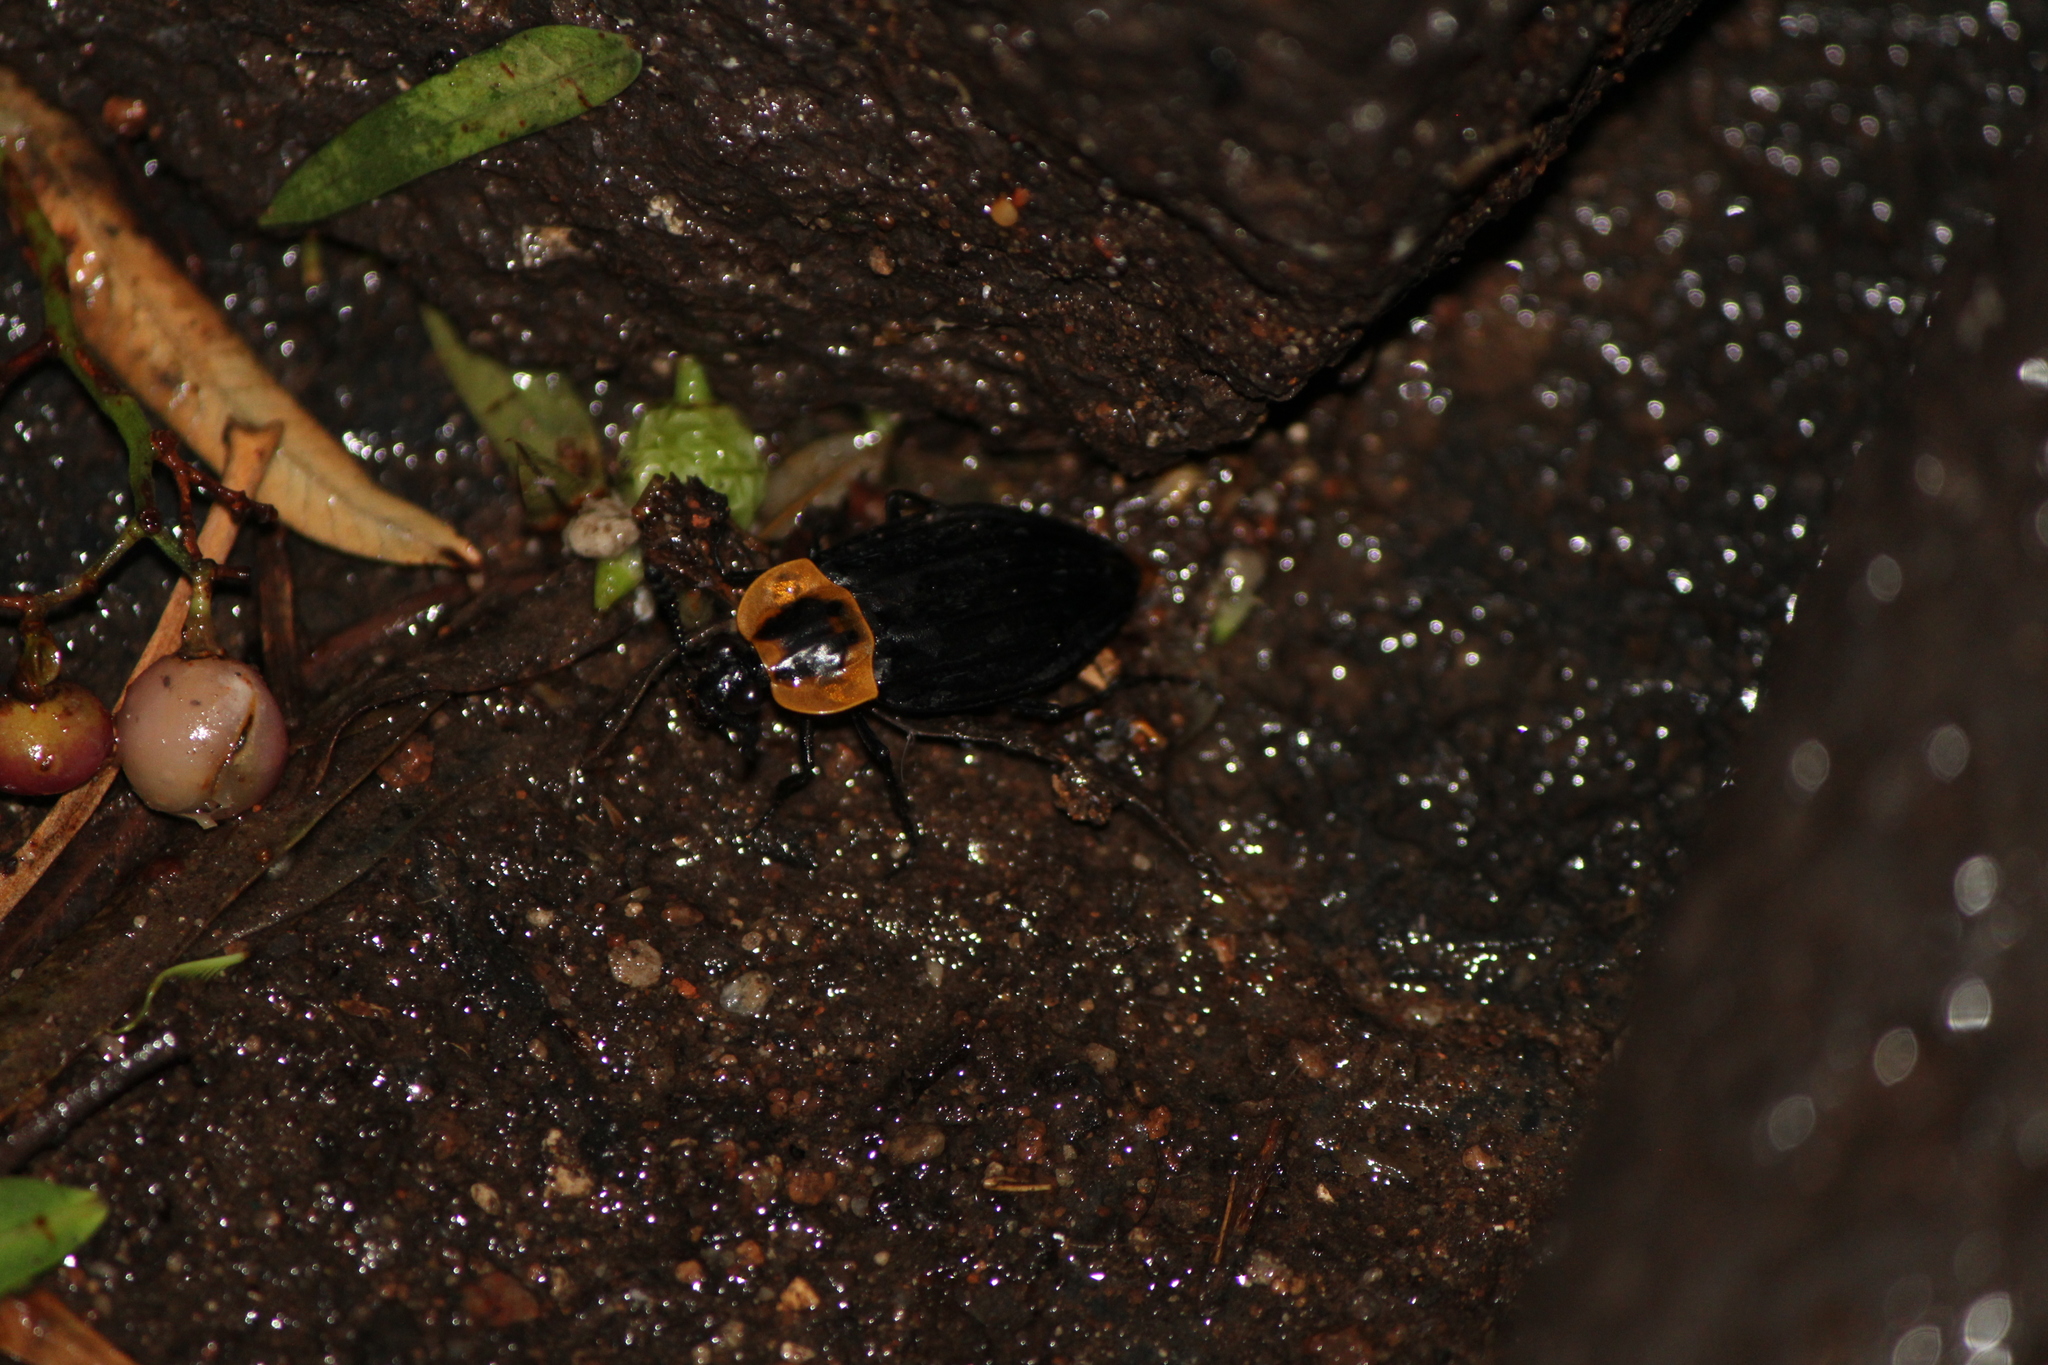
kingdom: Animalia
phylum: Arthropoda
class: Insecta
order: Coleoptera
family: Staphylinidae
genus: Oxelytrum
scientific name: Oxelytrum discicolle
